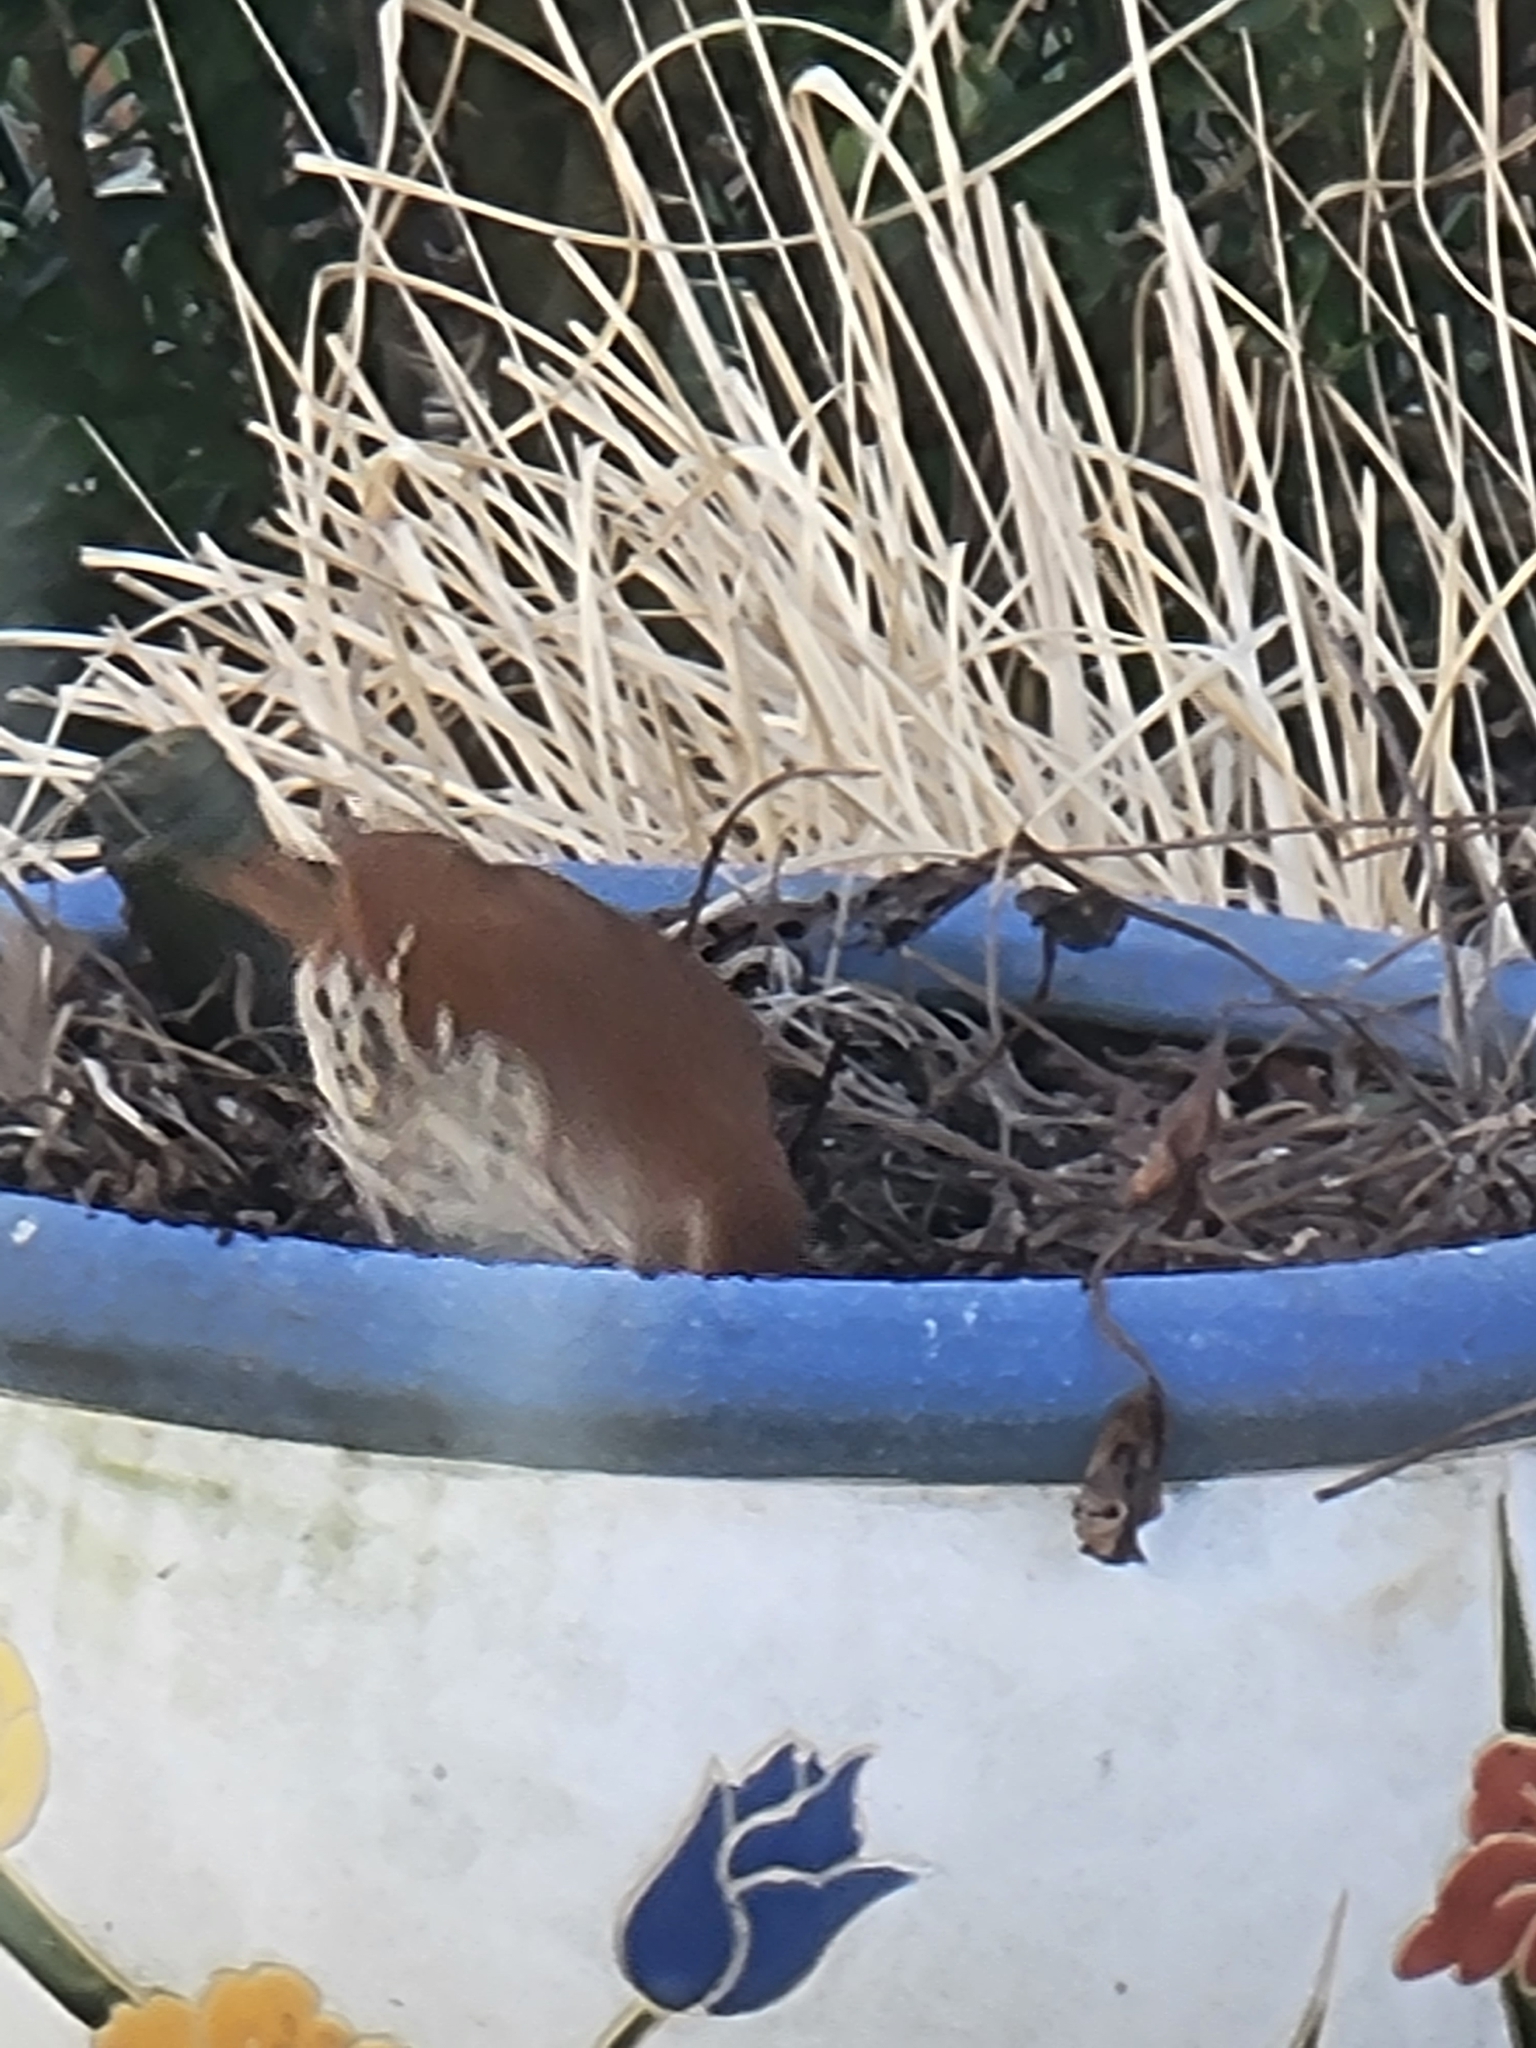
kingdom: Animalia
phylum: Chordata
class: Aves
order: Passeriformes
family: Mimidae
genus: Toxostoma
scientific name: Toxostoma rufum
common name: Brown thrasher
